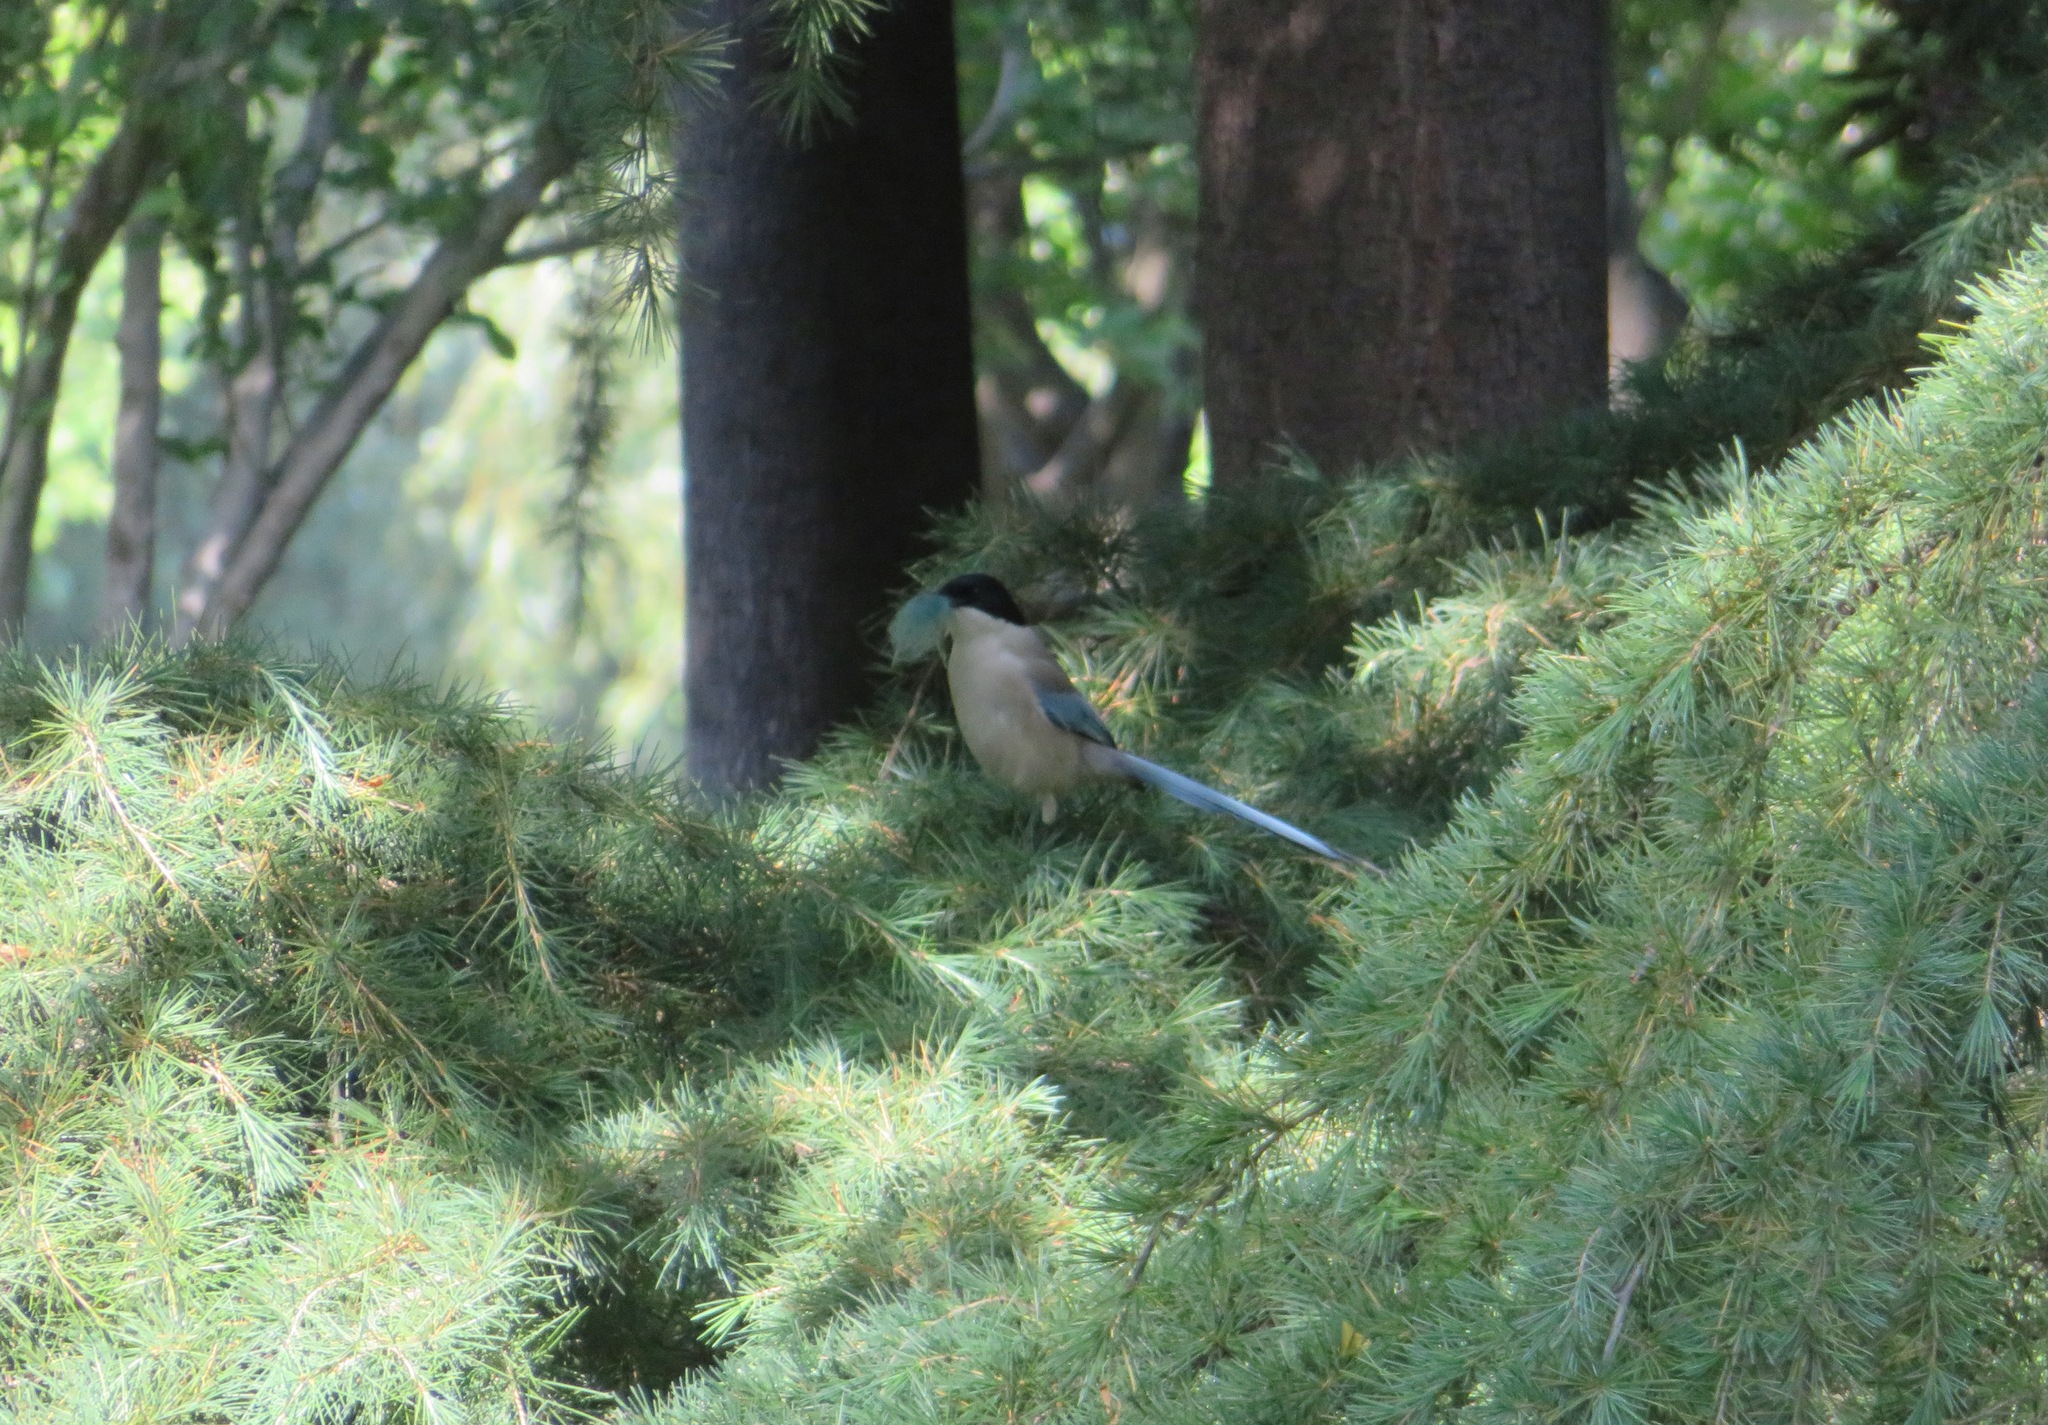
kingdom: Animalia
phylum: Chordata
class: Aves
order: Passeriformes
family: Corvidae
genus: Cyanopica
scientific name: Cyanopica cyanus
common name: Azure-winged magpie
